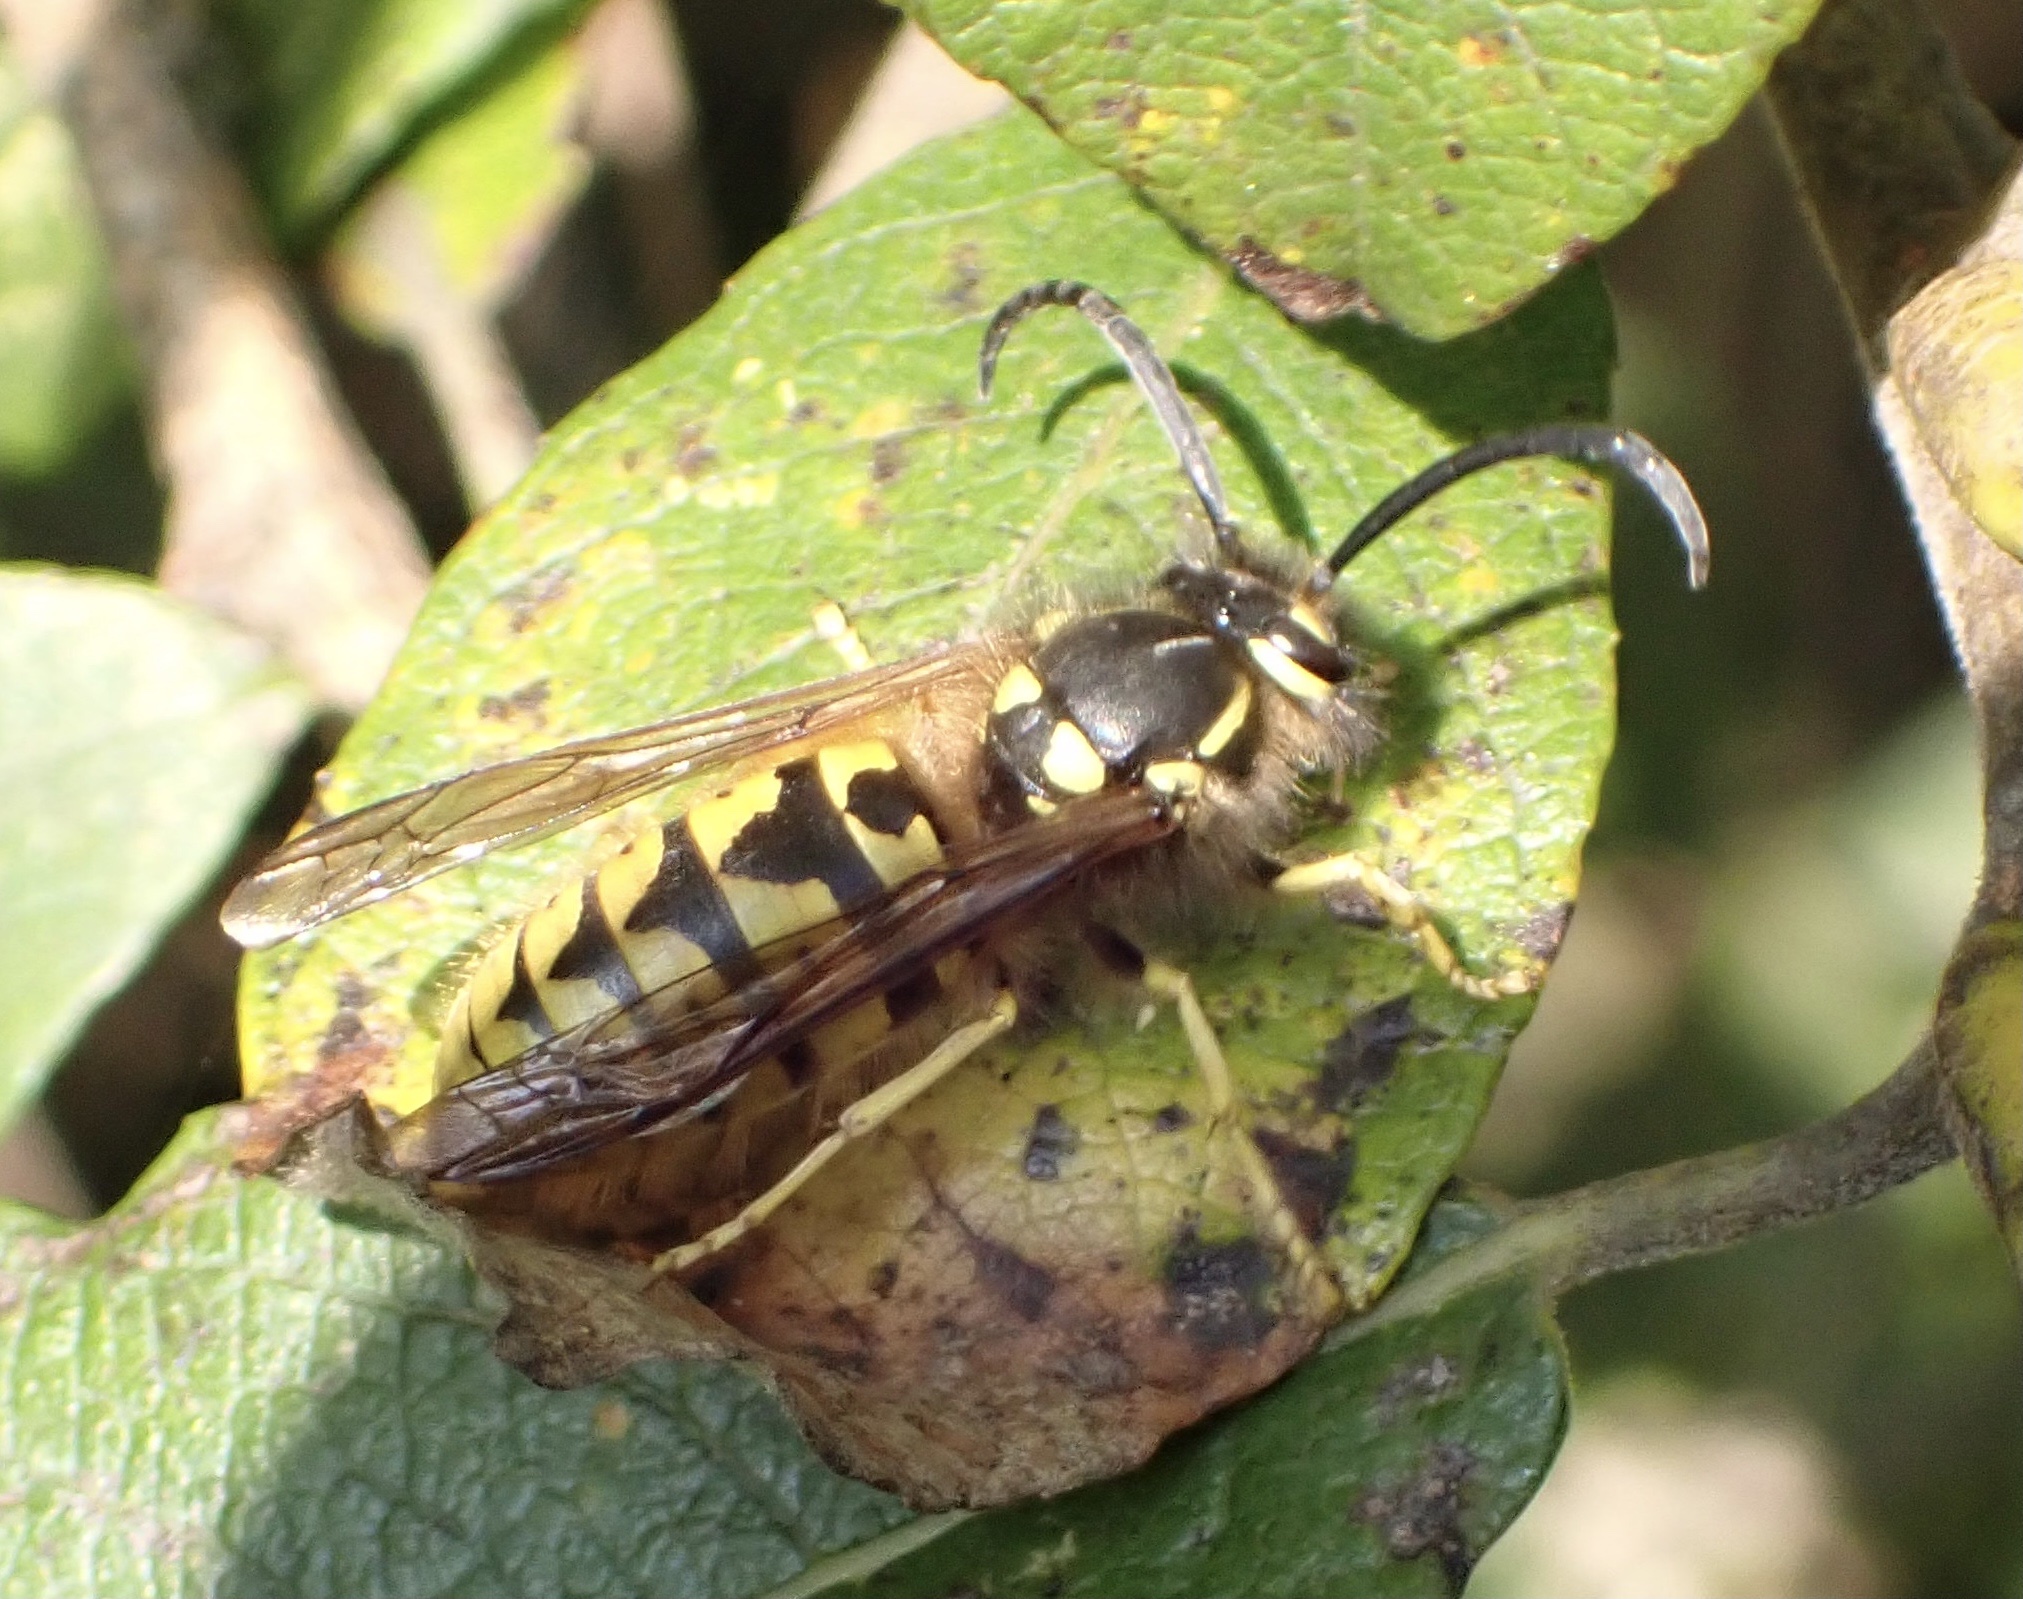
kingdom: Animalia
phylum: Arthropoda
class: Insecta
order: Hymenoptera
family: Vespidae
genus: Vespula
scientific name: Vespula vulgaris
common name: Common wasp
